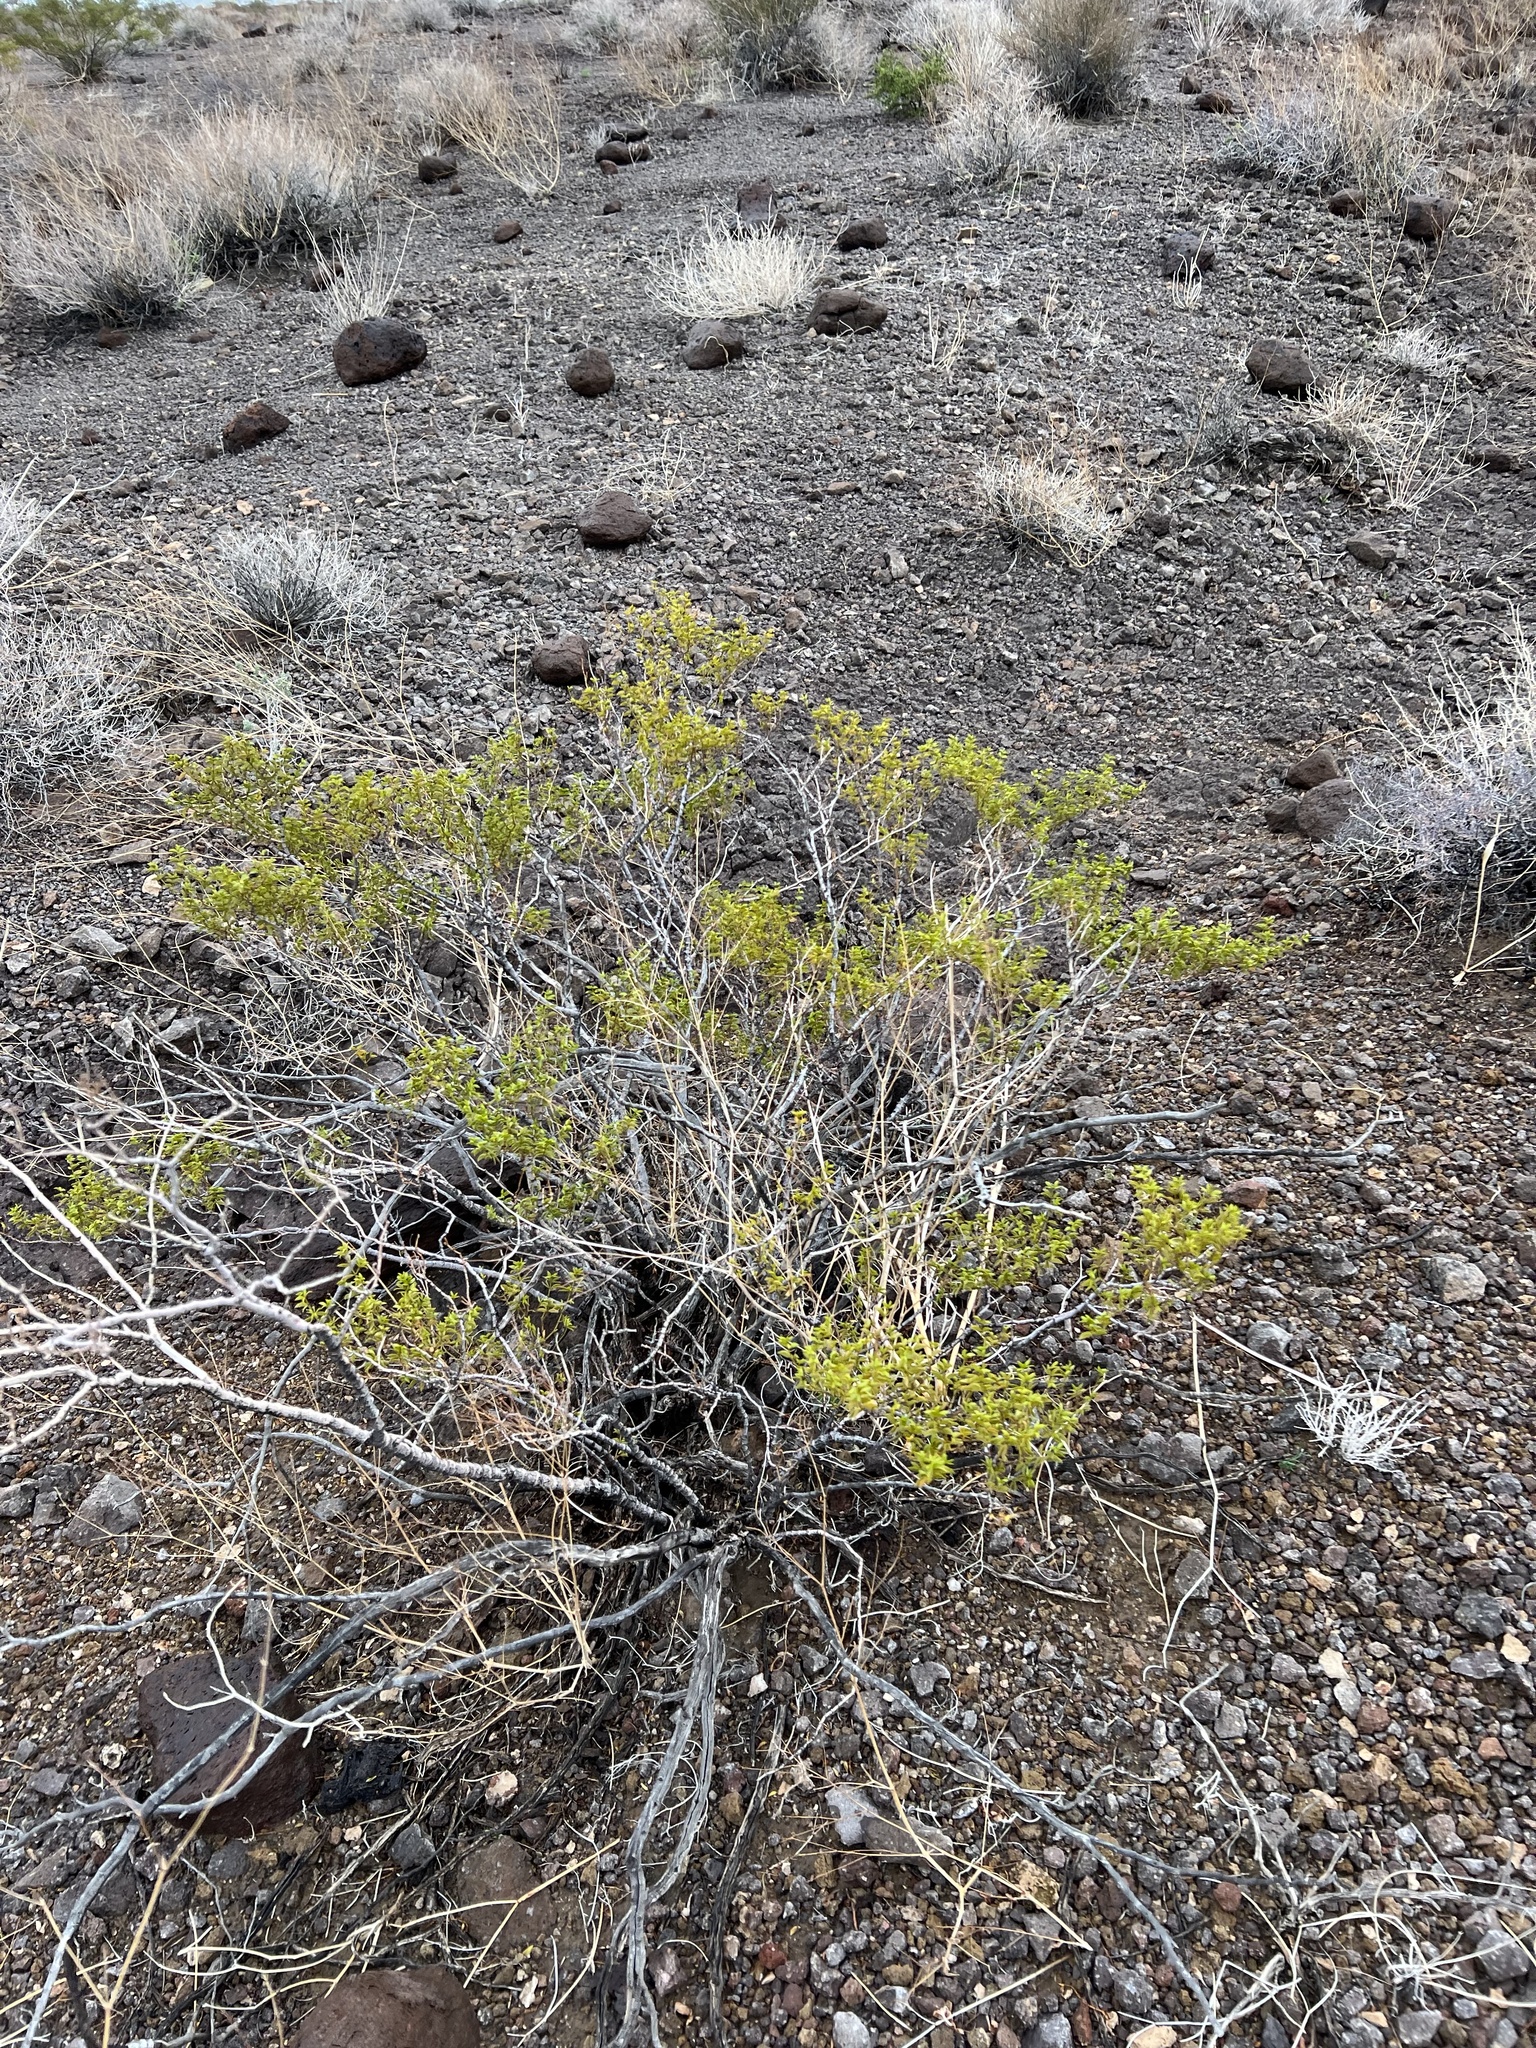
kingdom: Plantae
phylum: Tracheophyta
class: Magnoliopsida
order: Zygophyllales
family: Zygophyllaceae
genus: Larrea
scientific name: Larrea tridentata
